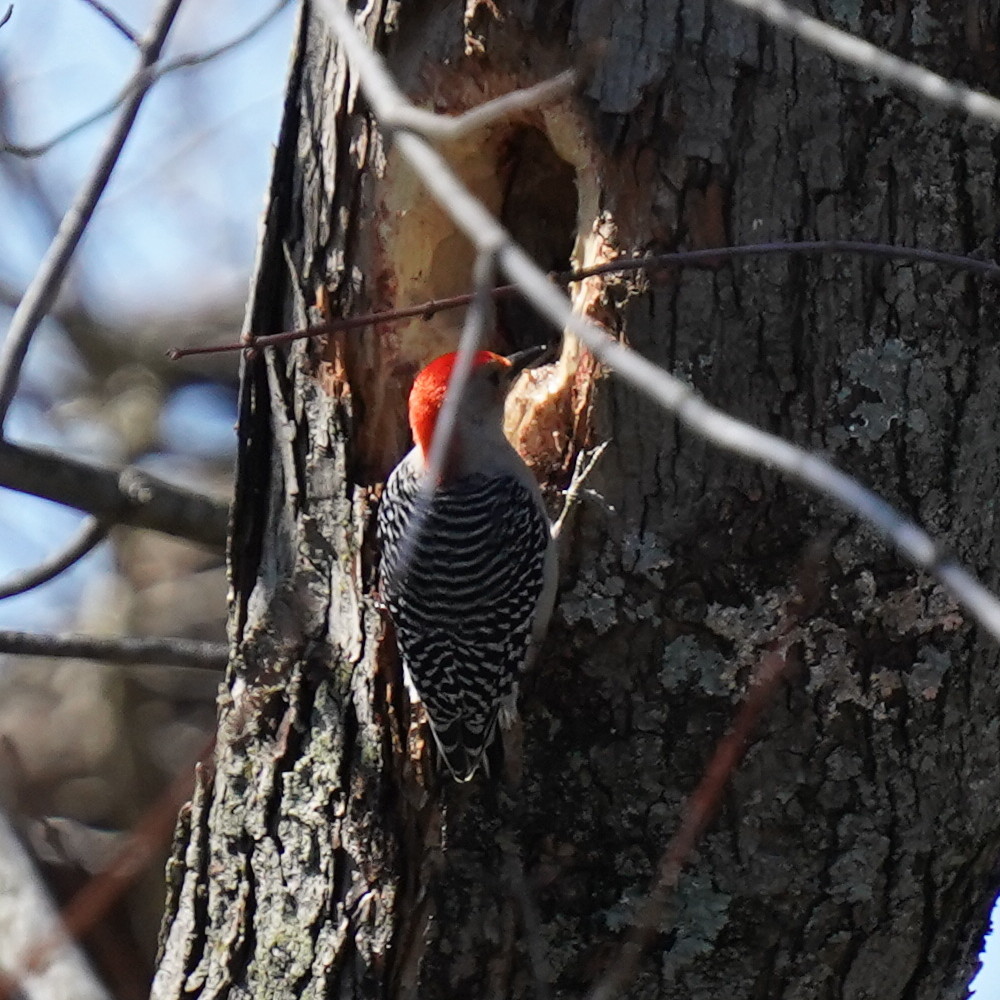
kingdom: Animalia
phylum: Chordata
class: Aves
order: Piciformes
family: Picidae
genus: Melanerpes
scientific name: Melanerpes carolinus
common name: Red-bellied woodpecker
